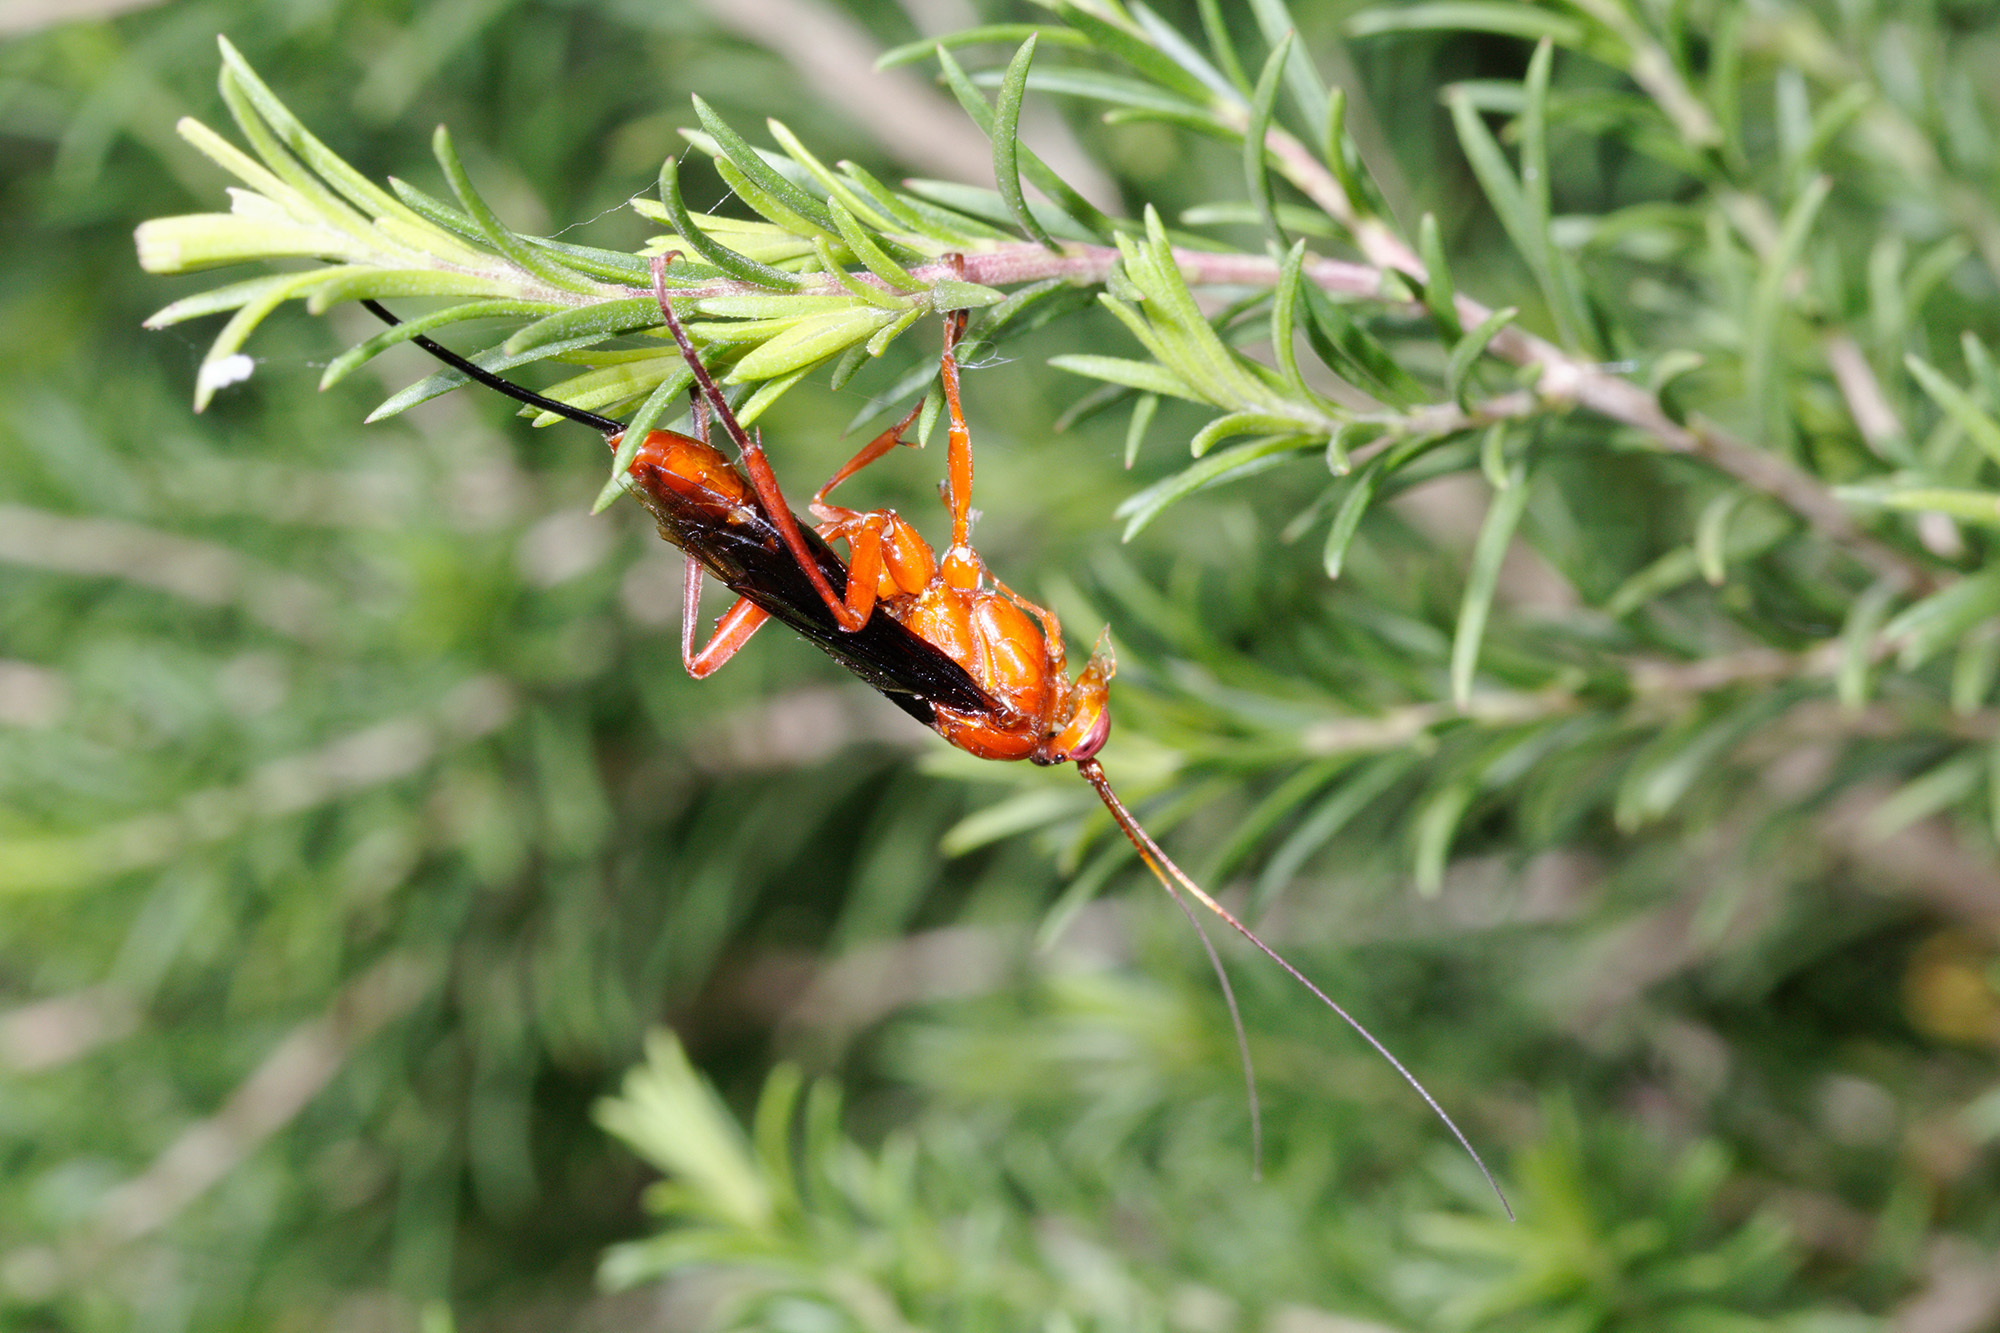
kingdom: Animalia
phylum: Arthropoda
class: Insecta
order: Hymenoptera
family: Ichneumonidae
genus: Lissopimpla
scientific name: Lissopimpla excelsa
